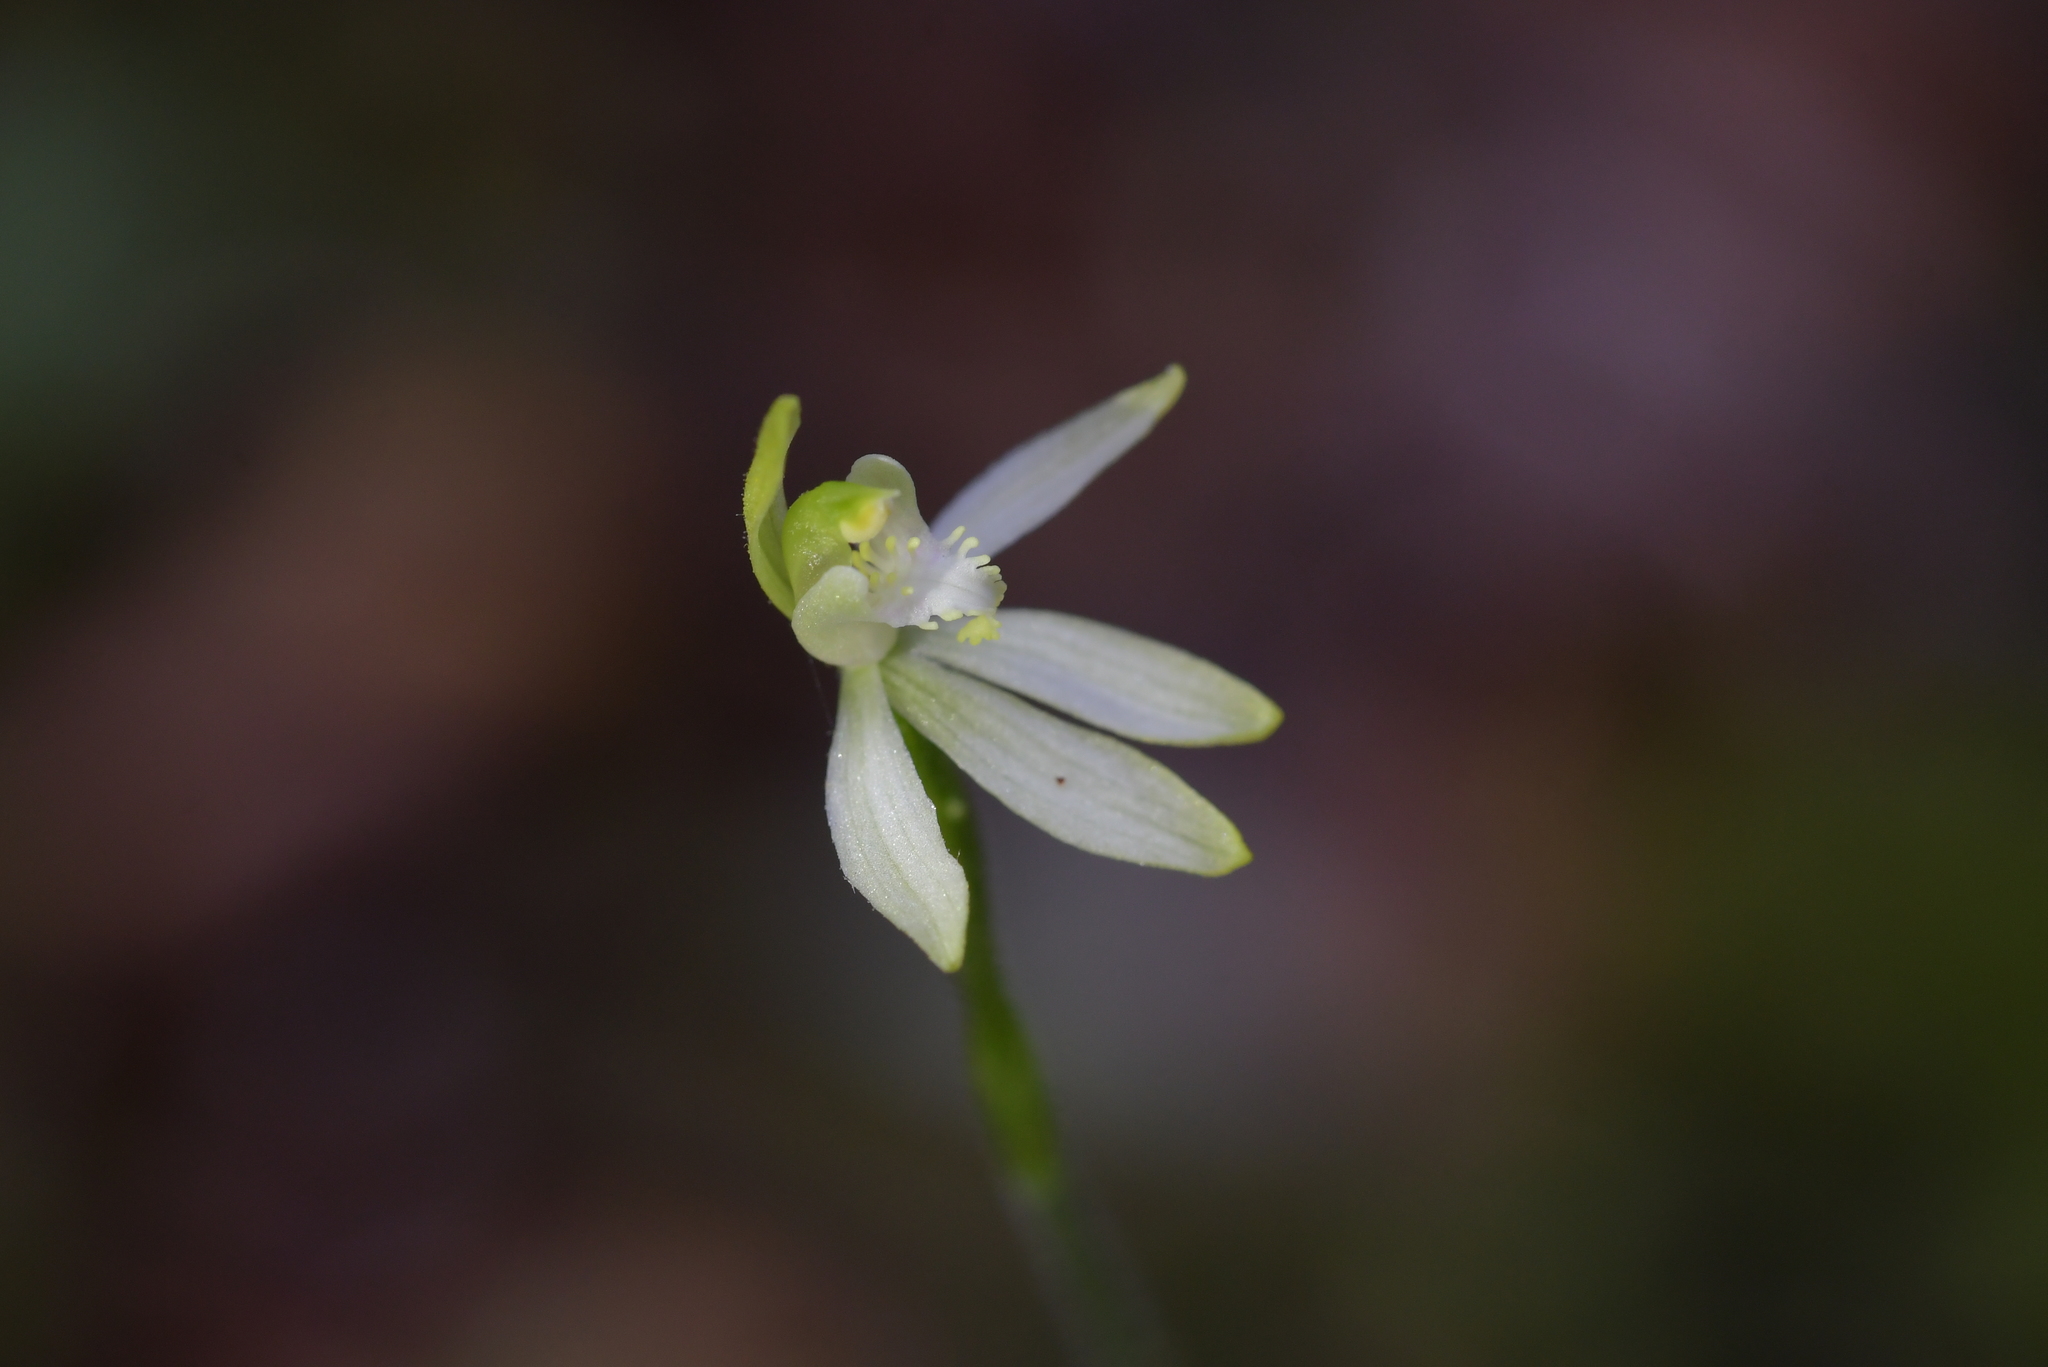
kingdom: Plantae
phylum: Tracheophyta
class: Liliopsida
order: Asparagales
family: Orchidaceae
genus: Caladenia
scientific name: Caladenia nothofageti
